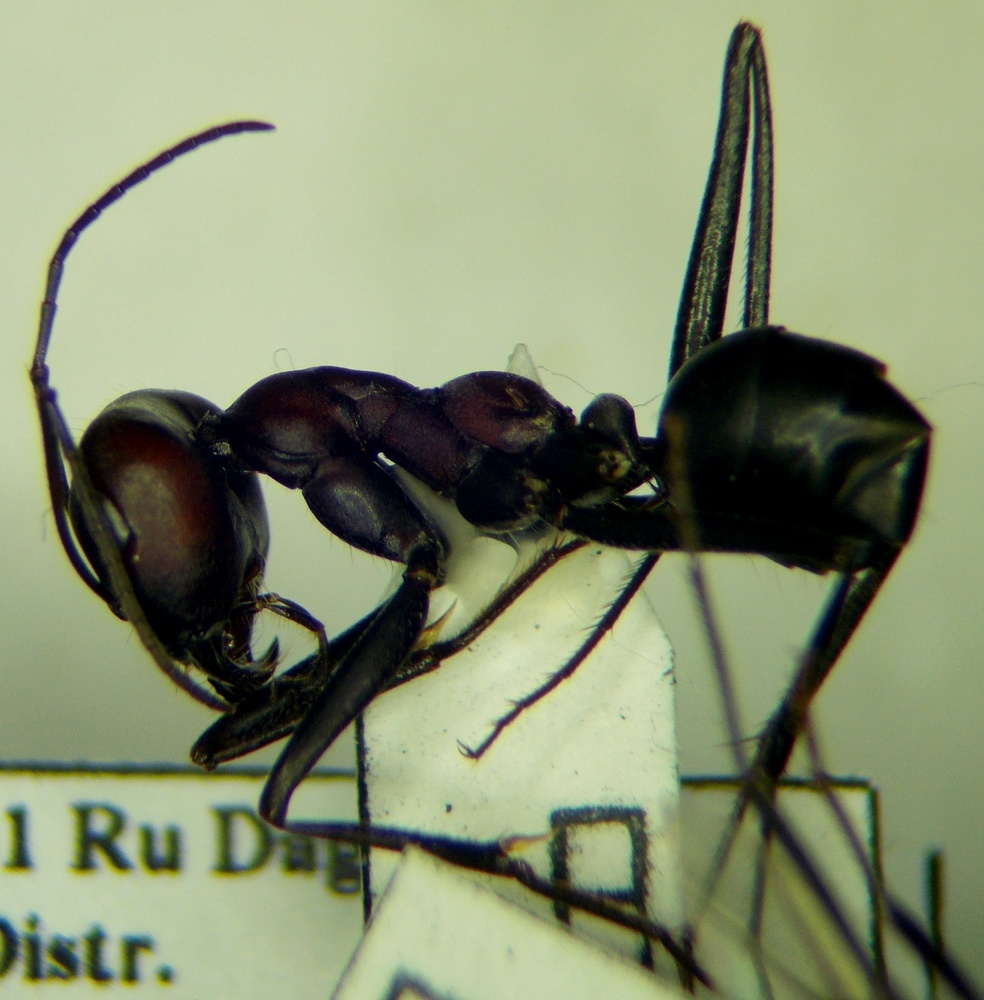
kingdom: Animalia
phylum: Arthropoda
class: Insecta
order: Hymenoptera
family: Formicidae
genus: Cataglyphis
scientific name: Cataglyphis nodus
